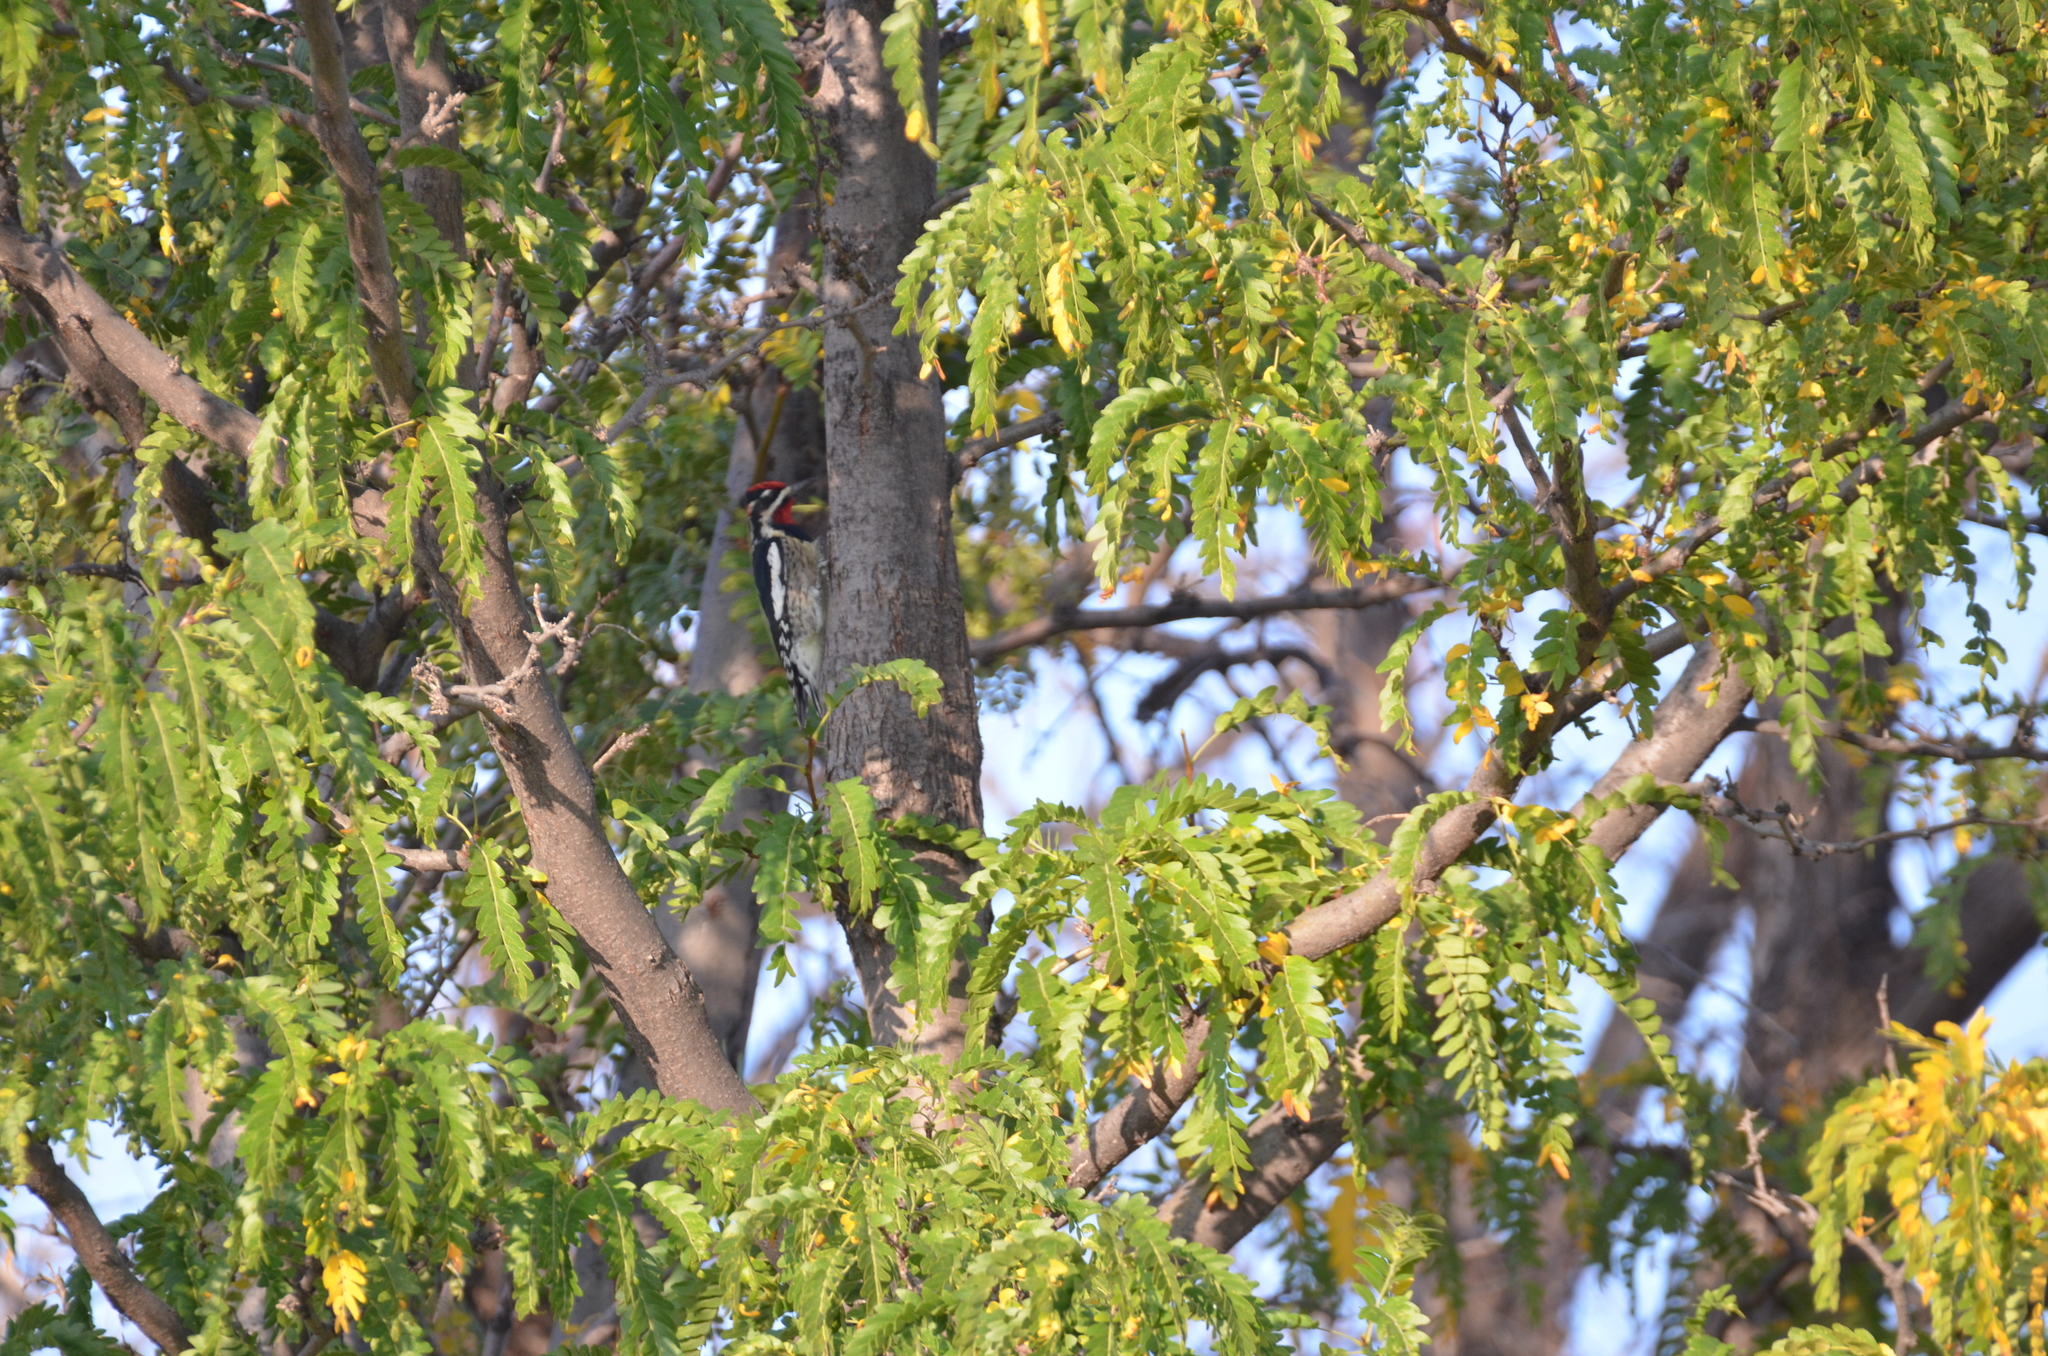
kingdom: Animalia
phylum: Chordata
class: Aves
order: Piciformes
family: Picidae
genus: Sphyrapicus
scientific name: Sphyrapicus nuchalis
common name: Red-naped sapsucker
